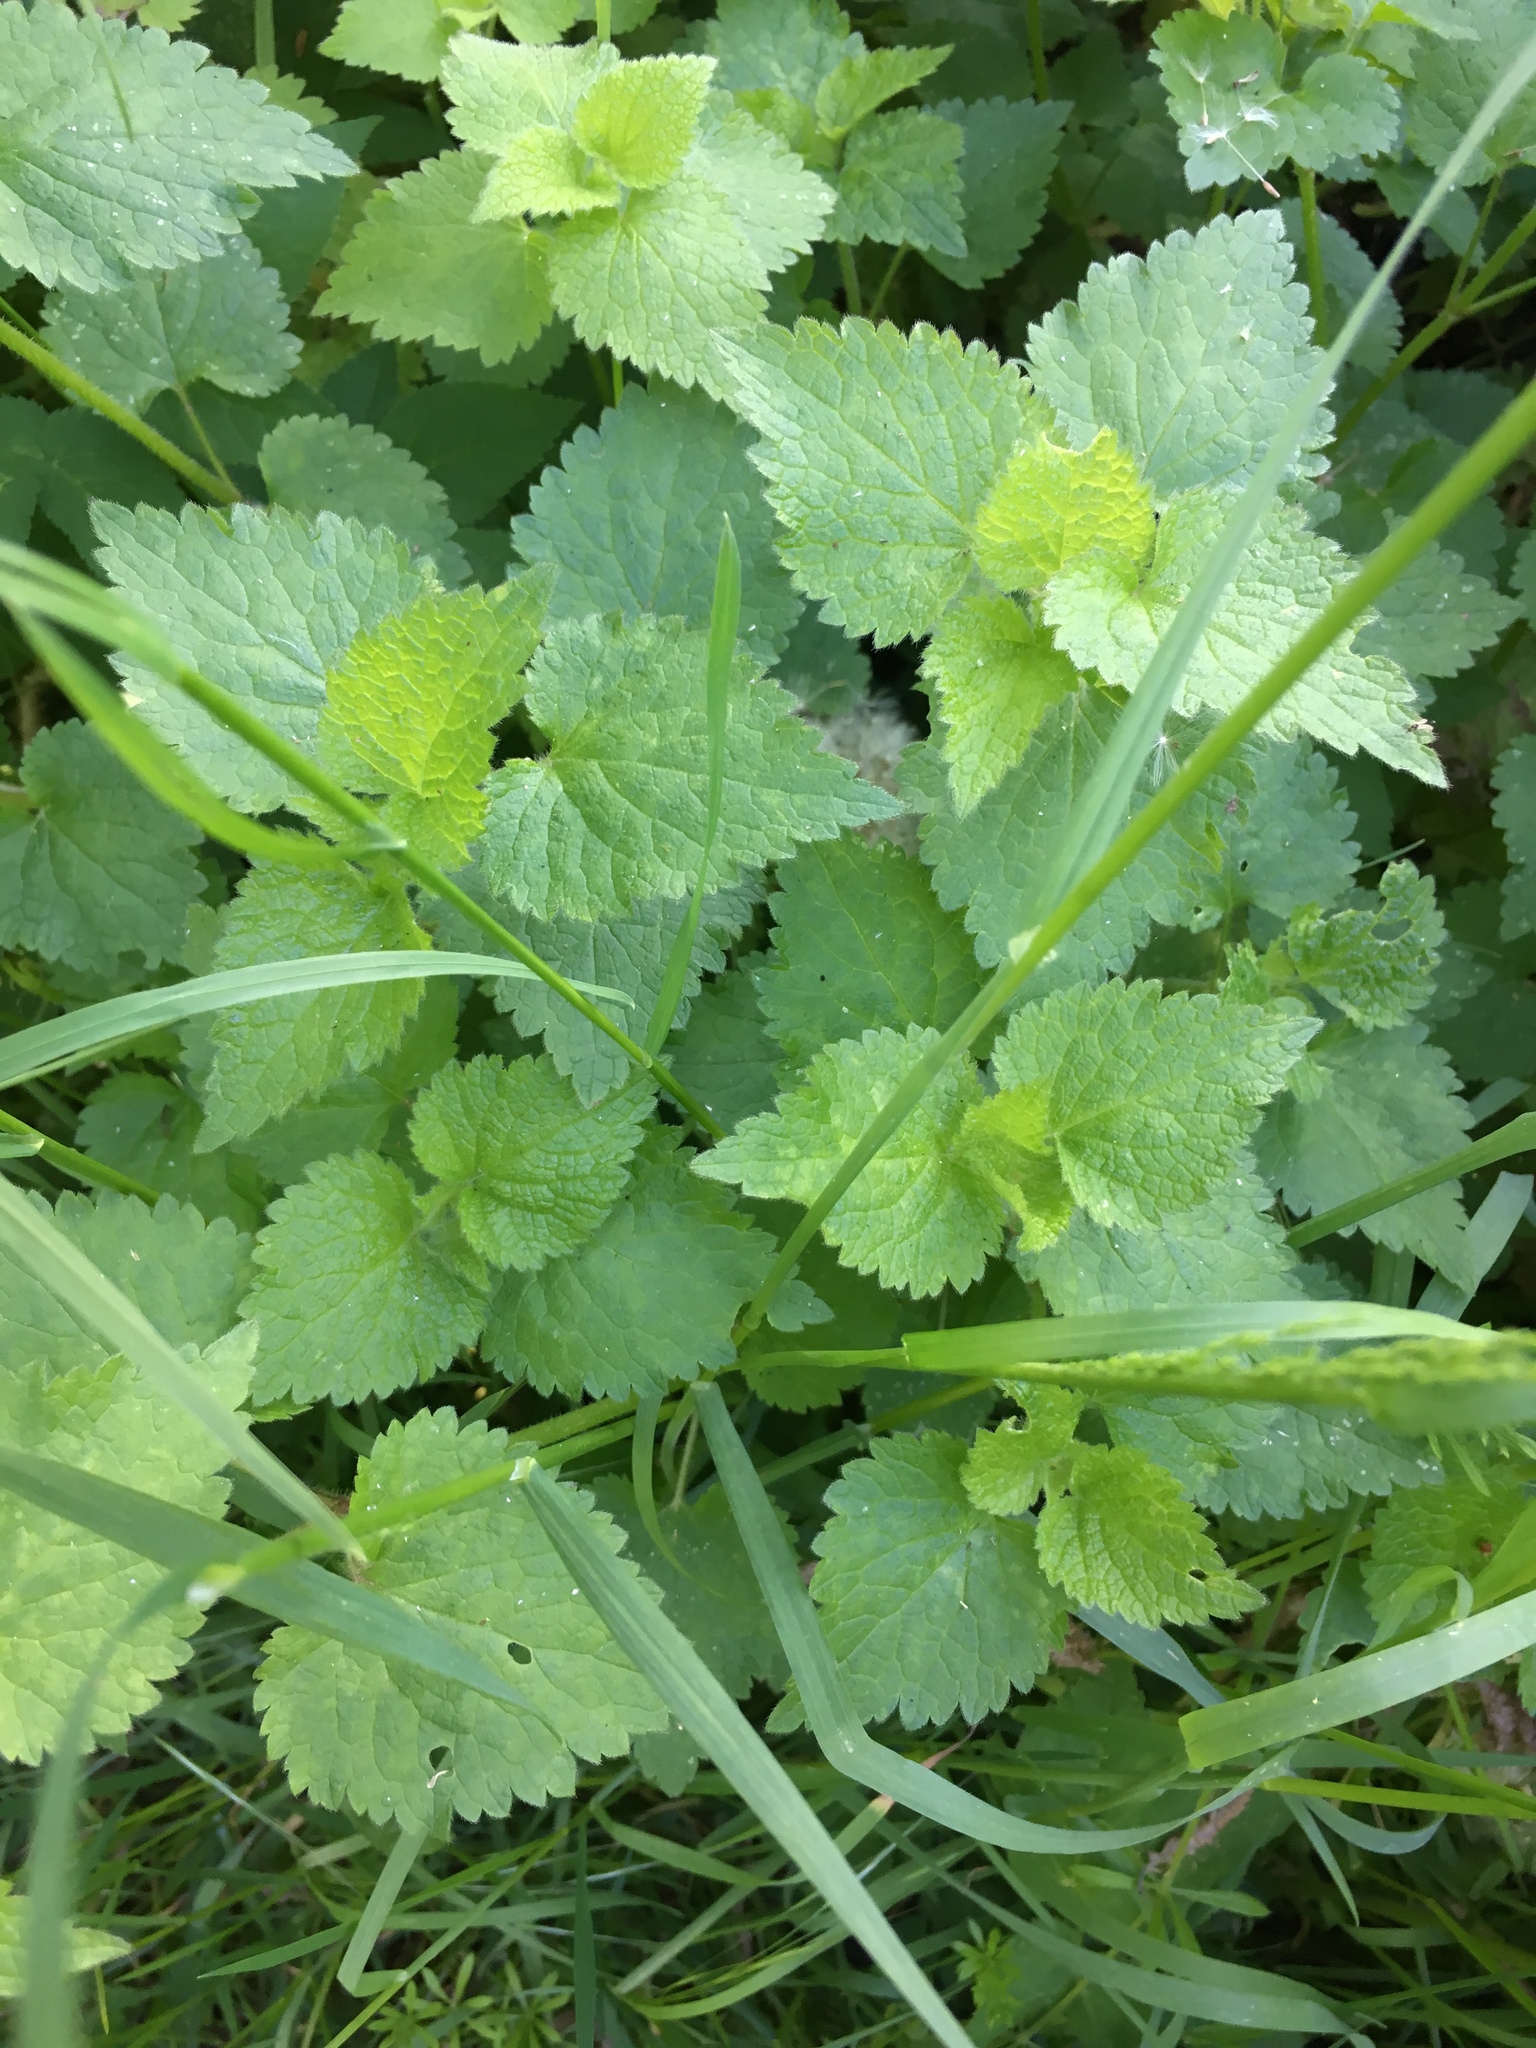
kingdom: Plantae
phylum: Tracheophyta
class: Magnoliopsida
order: Lamiales
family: Lamiaceae
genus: Lamium
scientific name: Lamium maculatum
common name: Spotted dead-nettle
